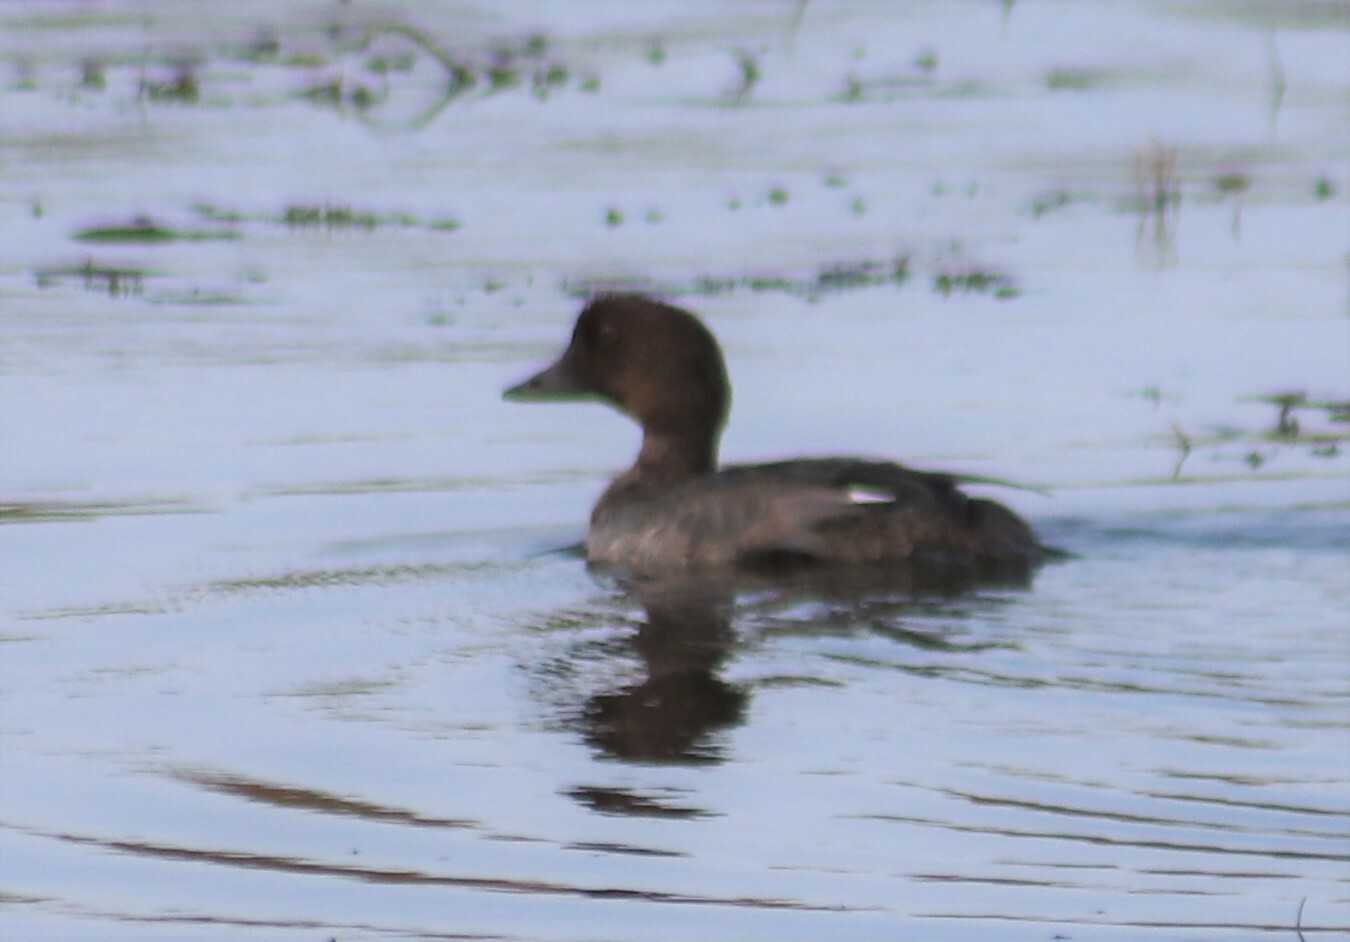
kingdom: Animalia
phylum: Chordata
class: Aves
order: Anseriformes
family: Anatidae
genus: Bucephala
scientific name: Bucephala clangula
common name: Common goldeneye
